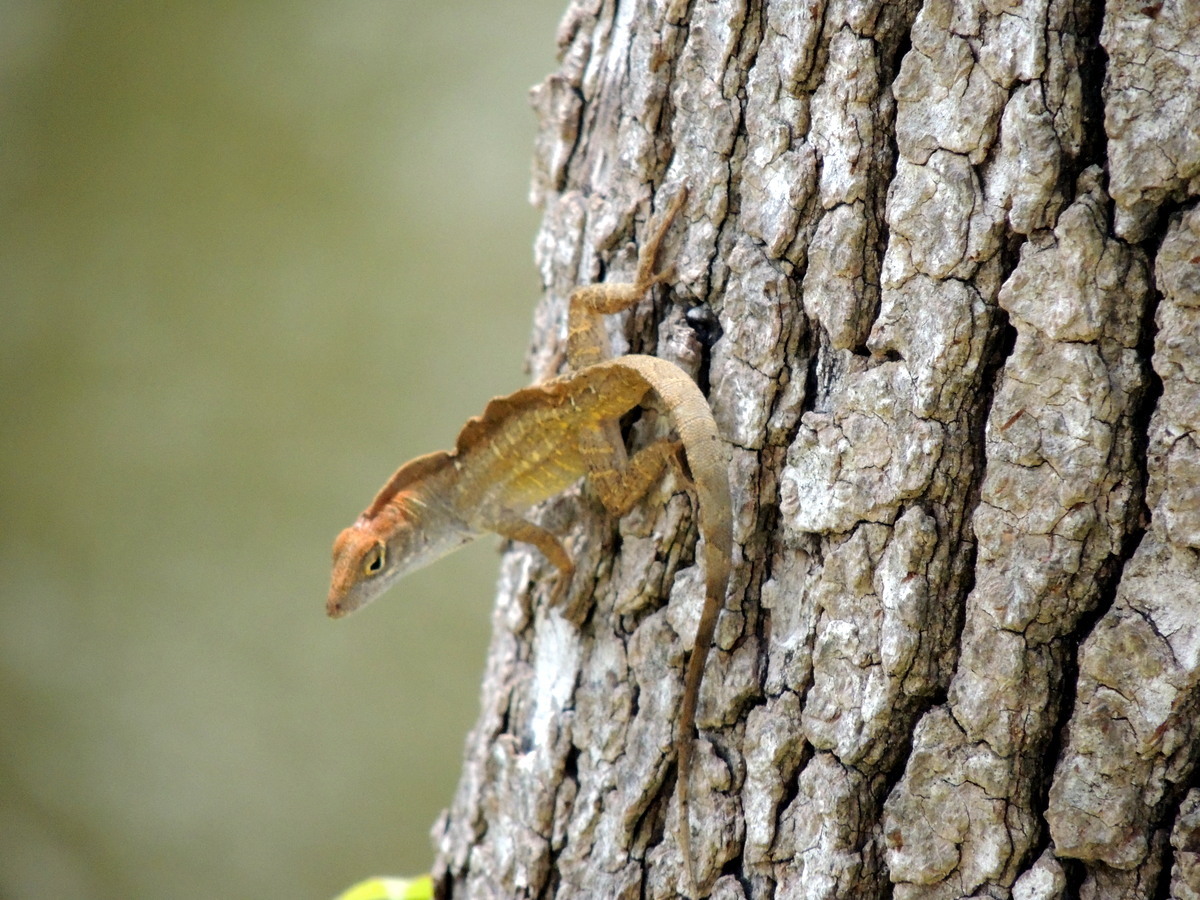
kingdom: Animalia
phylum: Chordata
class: Squamata
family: Dactyloidae
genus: Anolis
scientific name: Anolis sagrei
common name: Brown anole
